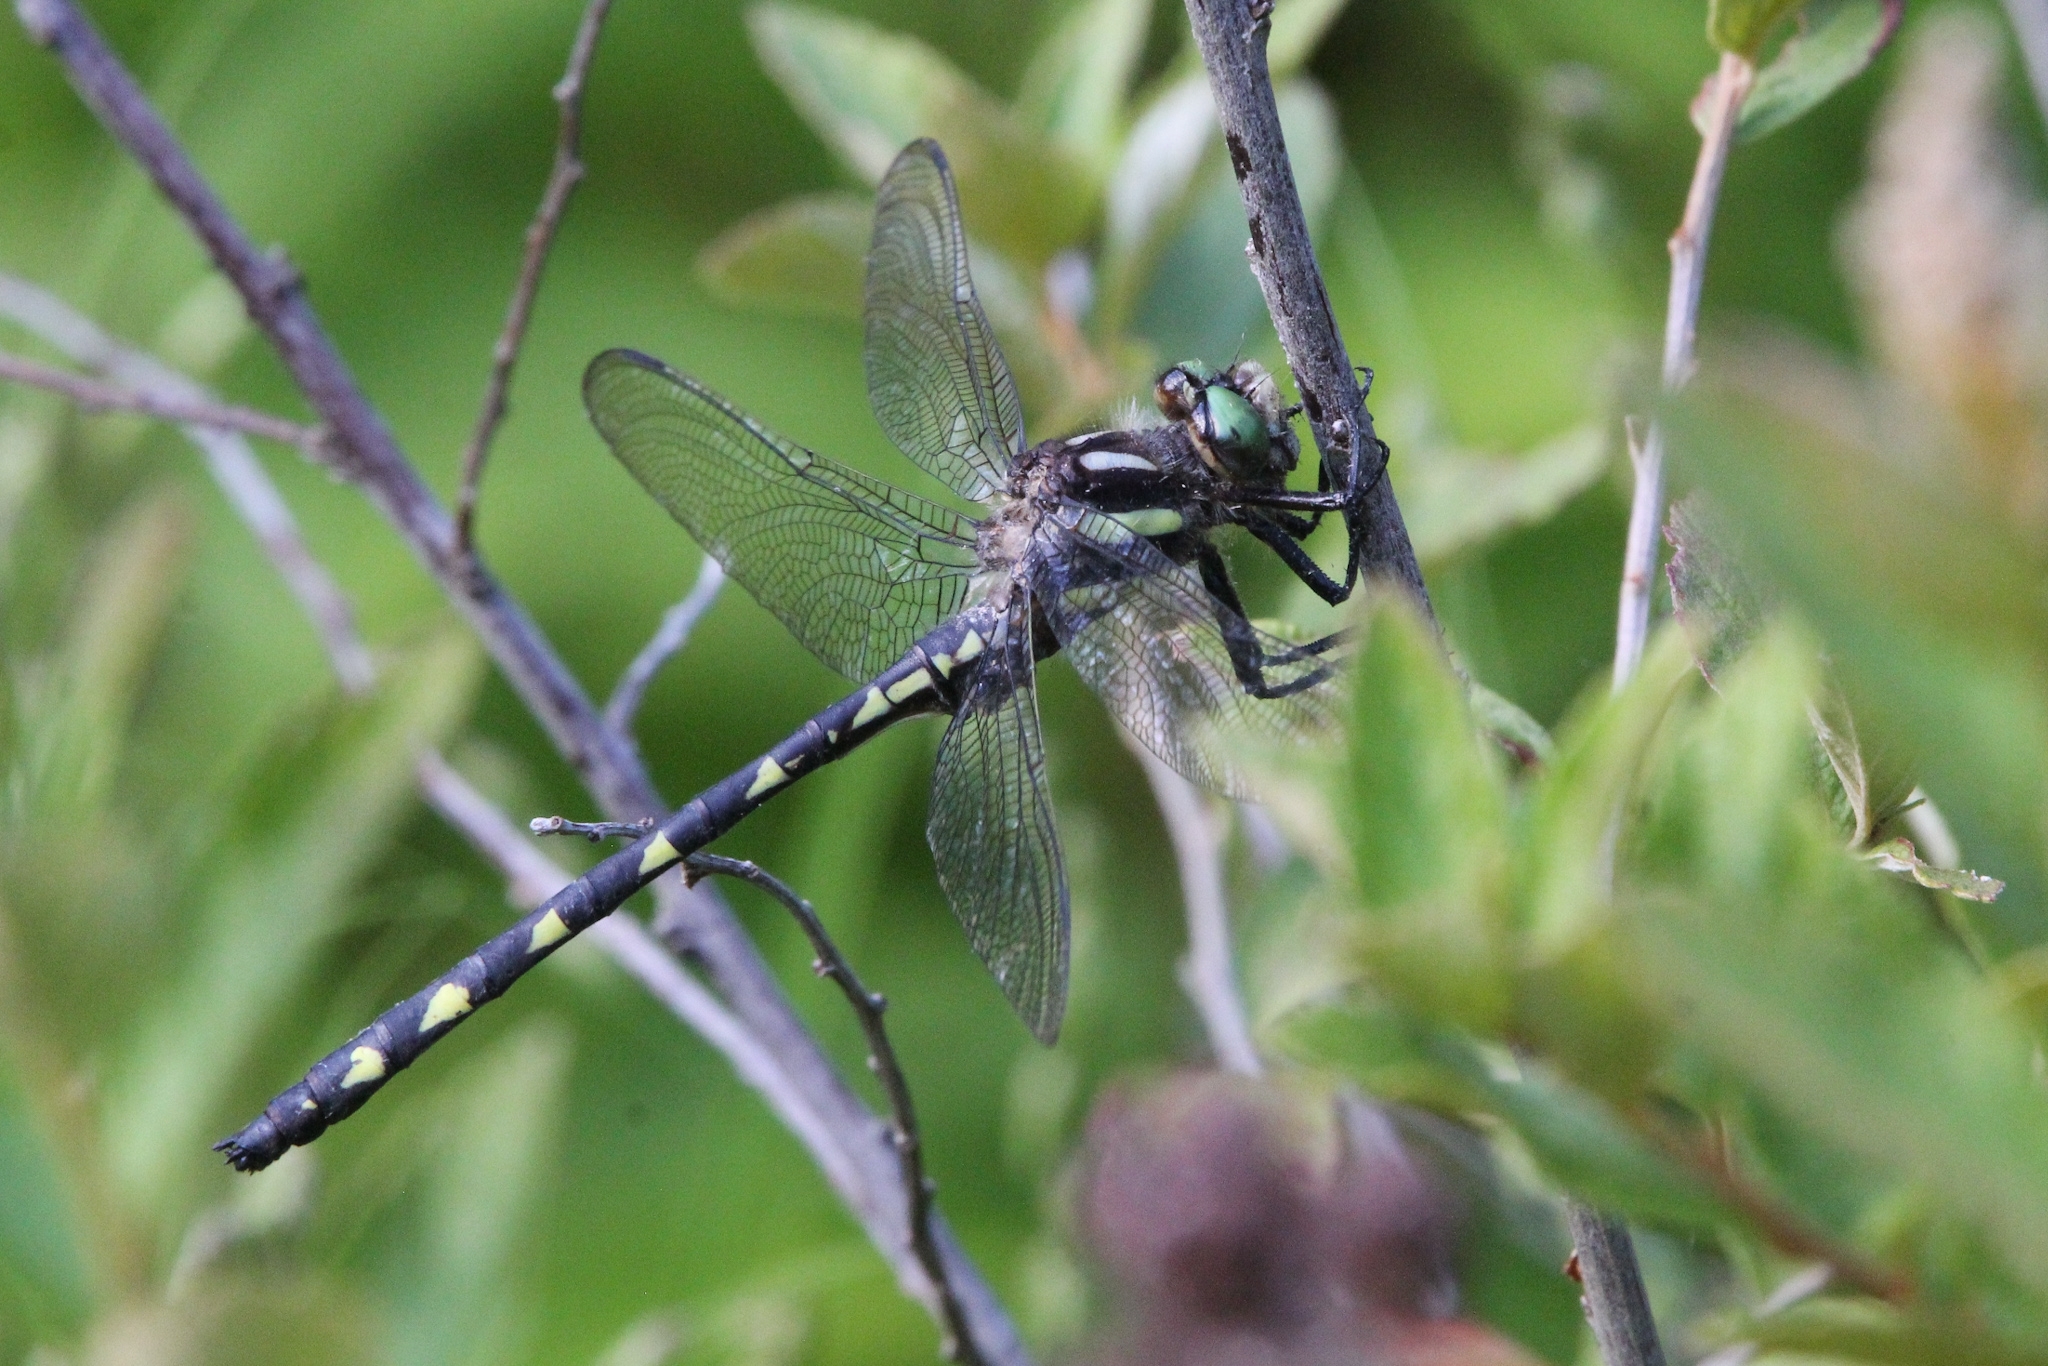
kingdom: Animalia
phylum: Arthropoda
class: Insecta
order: Odonata
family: Cordulegastridae
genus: Cordulegaster
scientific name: Cordulegaster diastatops
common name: Delta-spotted spiketail
